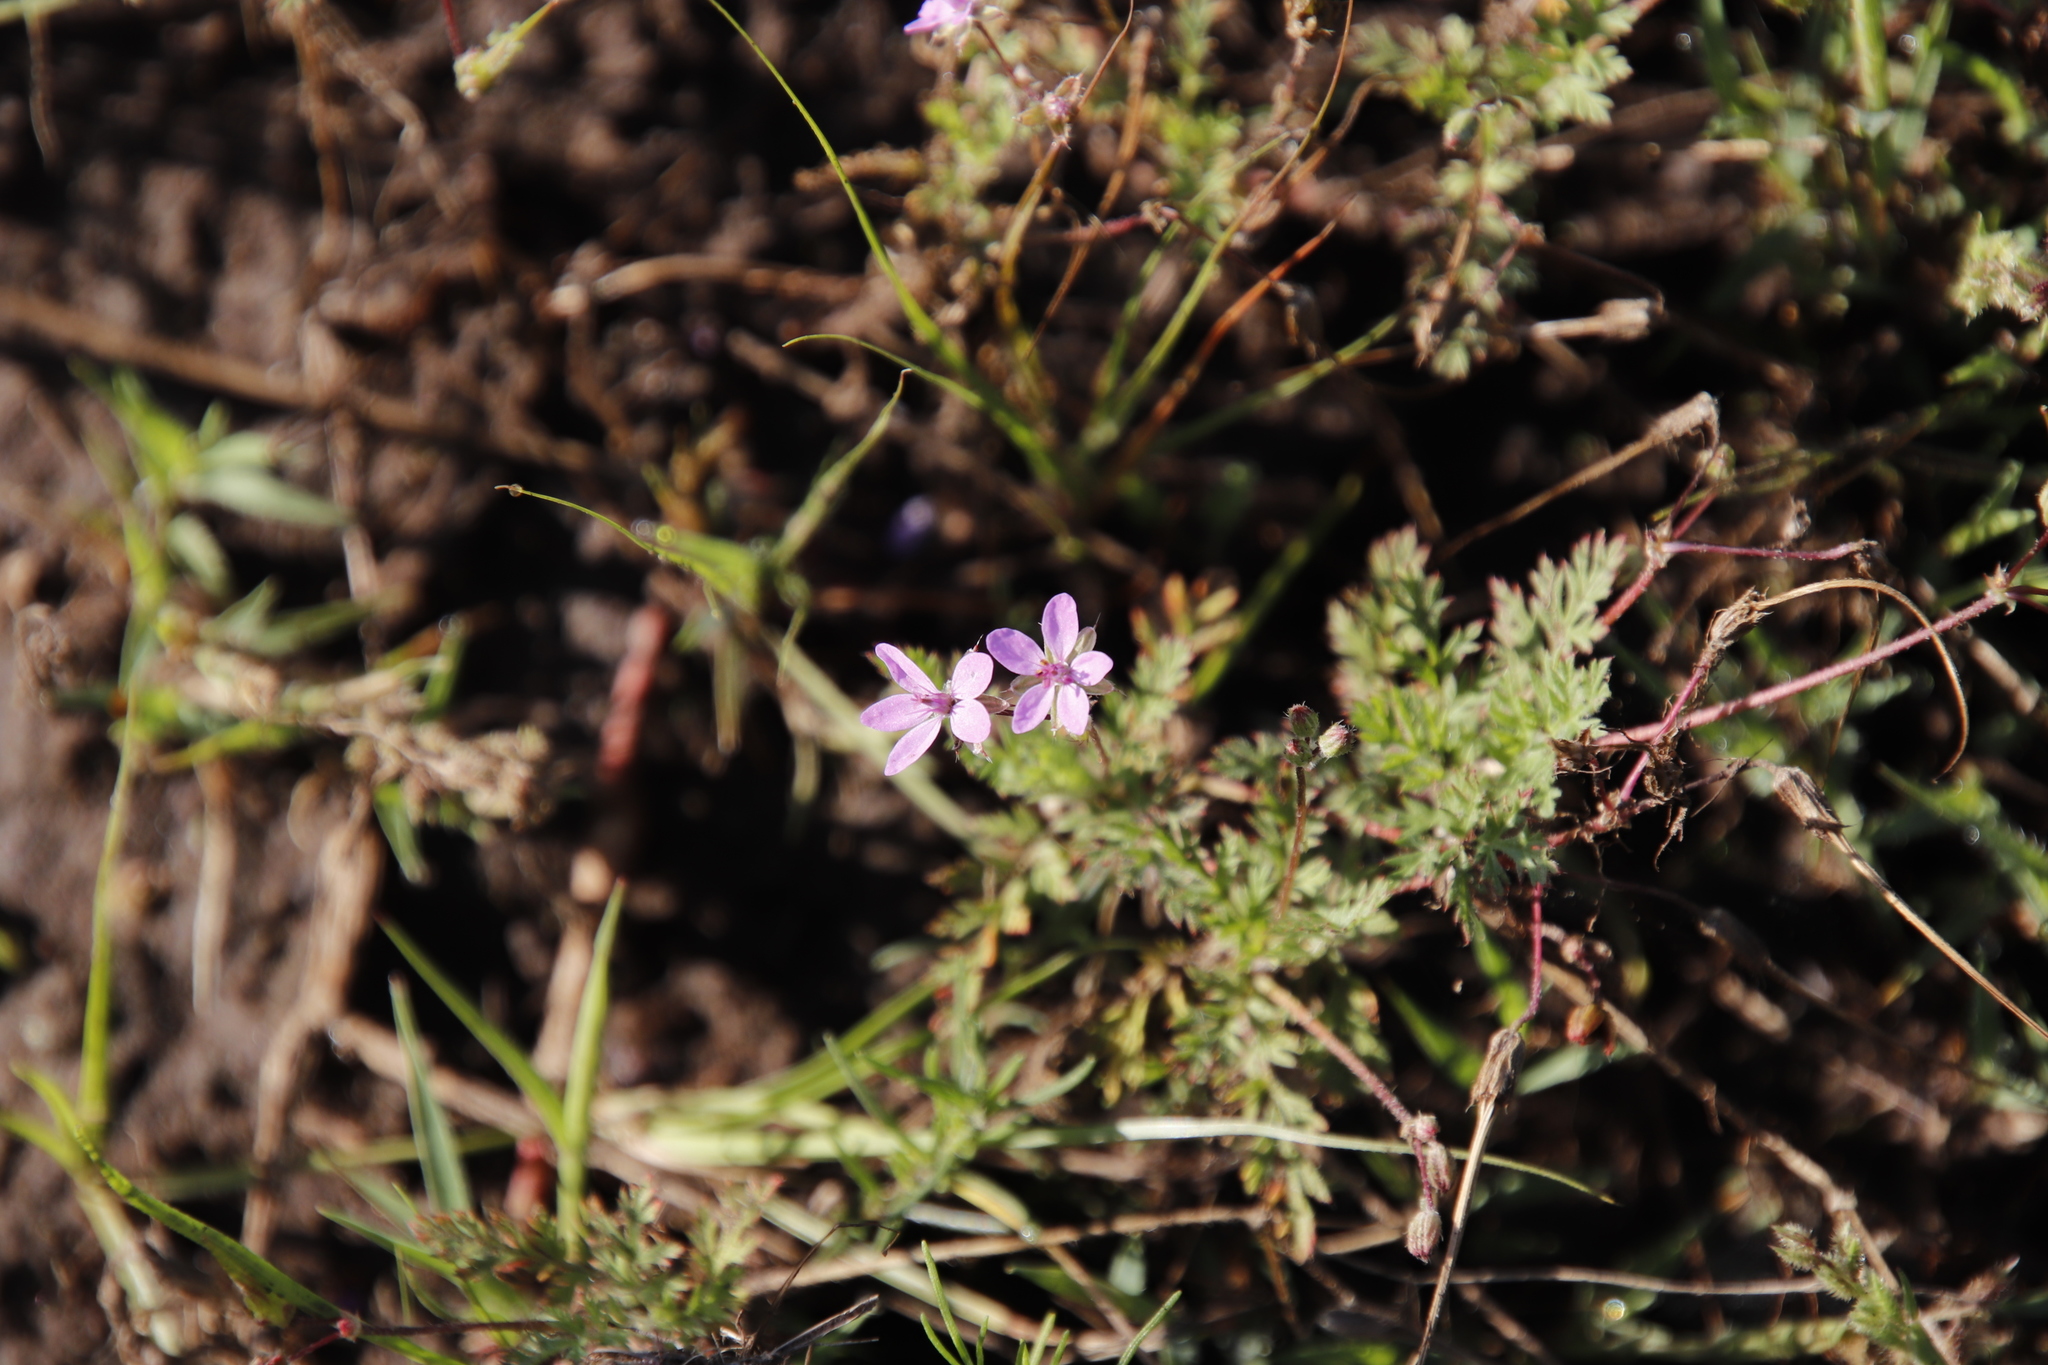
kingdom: Plantae
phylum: Tracheophyta
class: Magnoliopsida
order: Geraniales
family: Geraniaceae
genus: Erodium
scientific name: Erodium cicutarium
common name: Common stork's-bill
